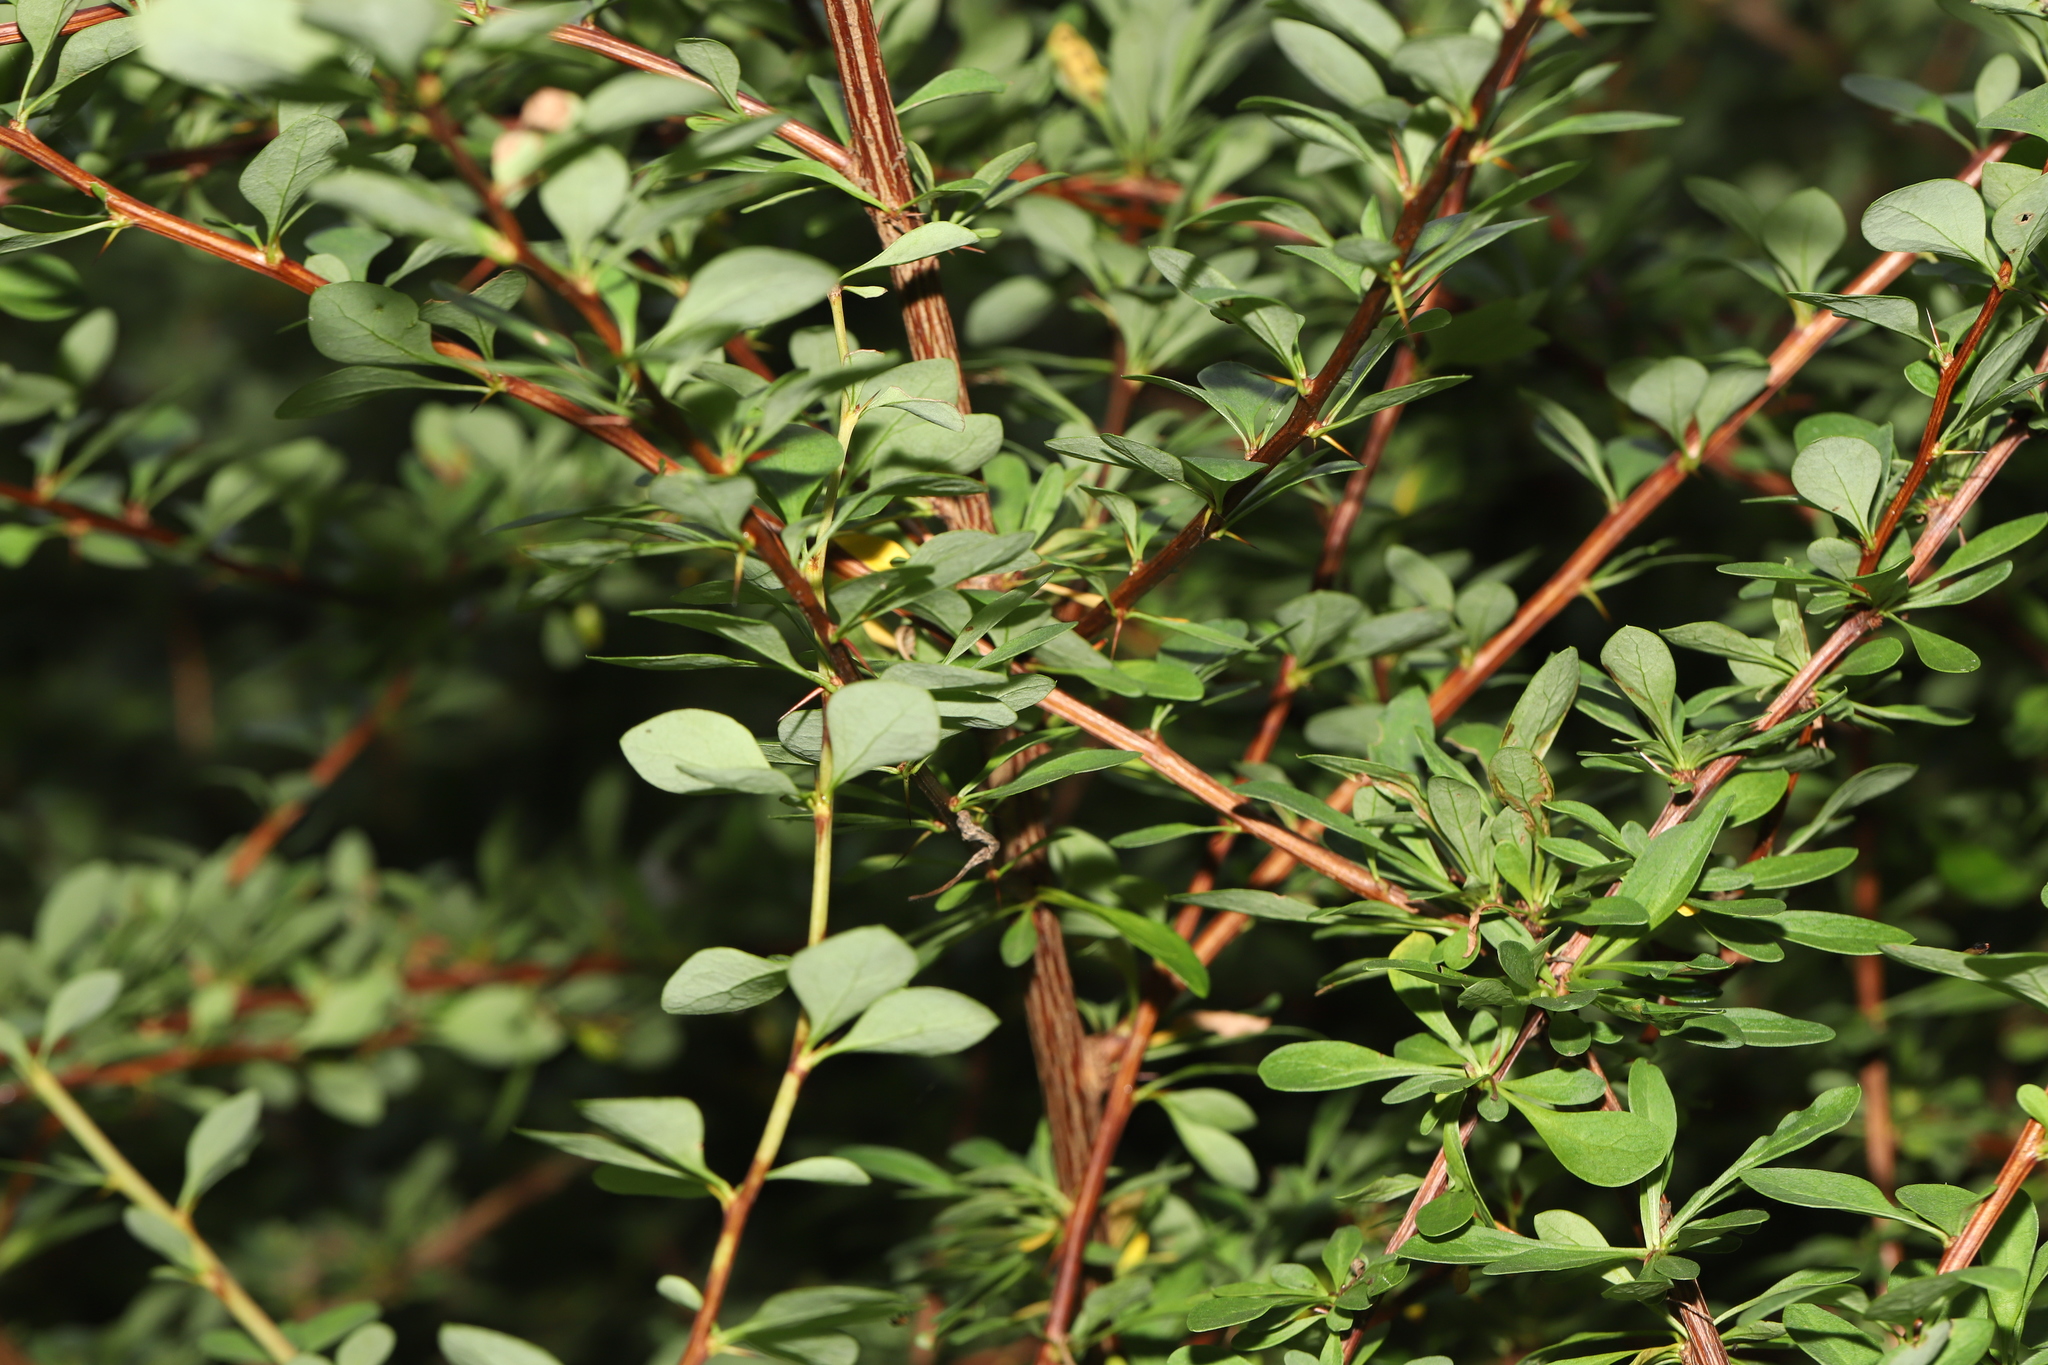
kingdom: Plantae
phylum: Tracheophyta
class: Magnoliopsida
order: Ranunculales
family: Berberidaceae
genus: Berberis
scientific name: Berberis thunbergii
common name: Japanese barberry
